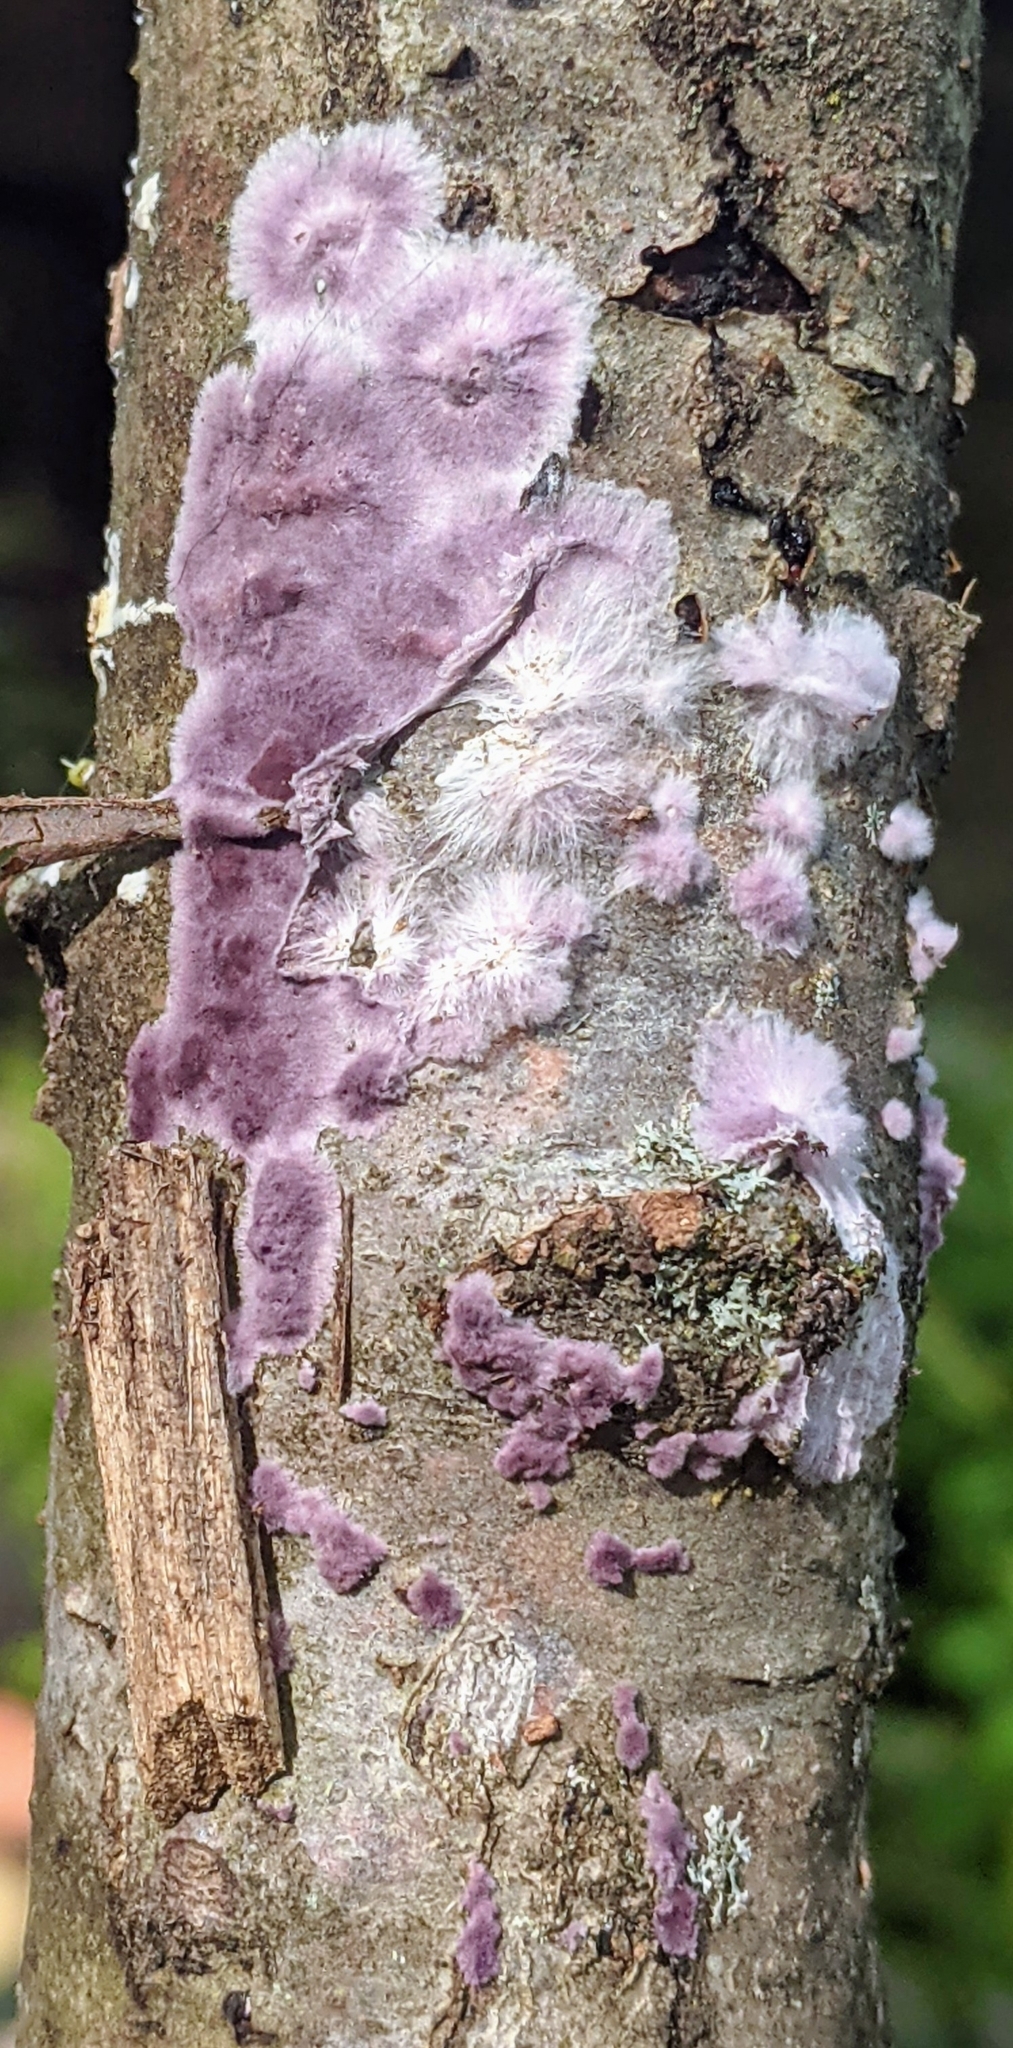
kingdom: Fungi
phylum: Basidiomycota
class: Agaricomycetes
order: Polyporales
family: Phanerochaetaceae
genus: Phlebiopsis
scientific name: Phlebiopsis crassa
